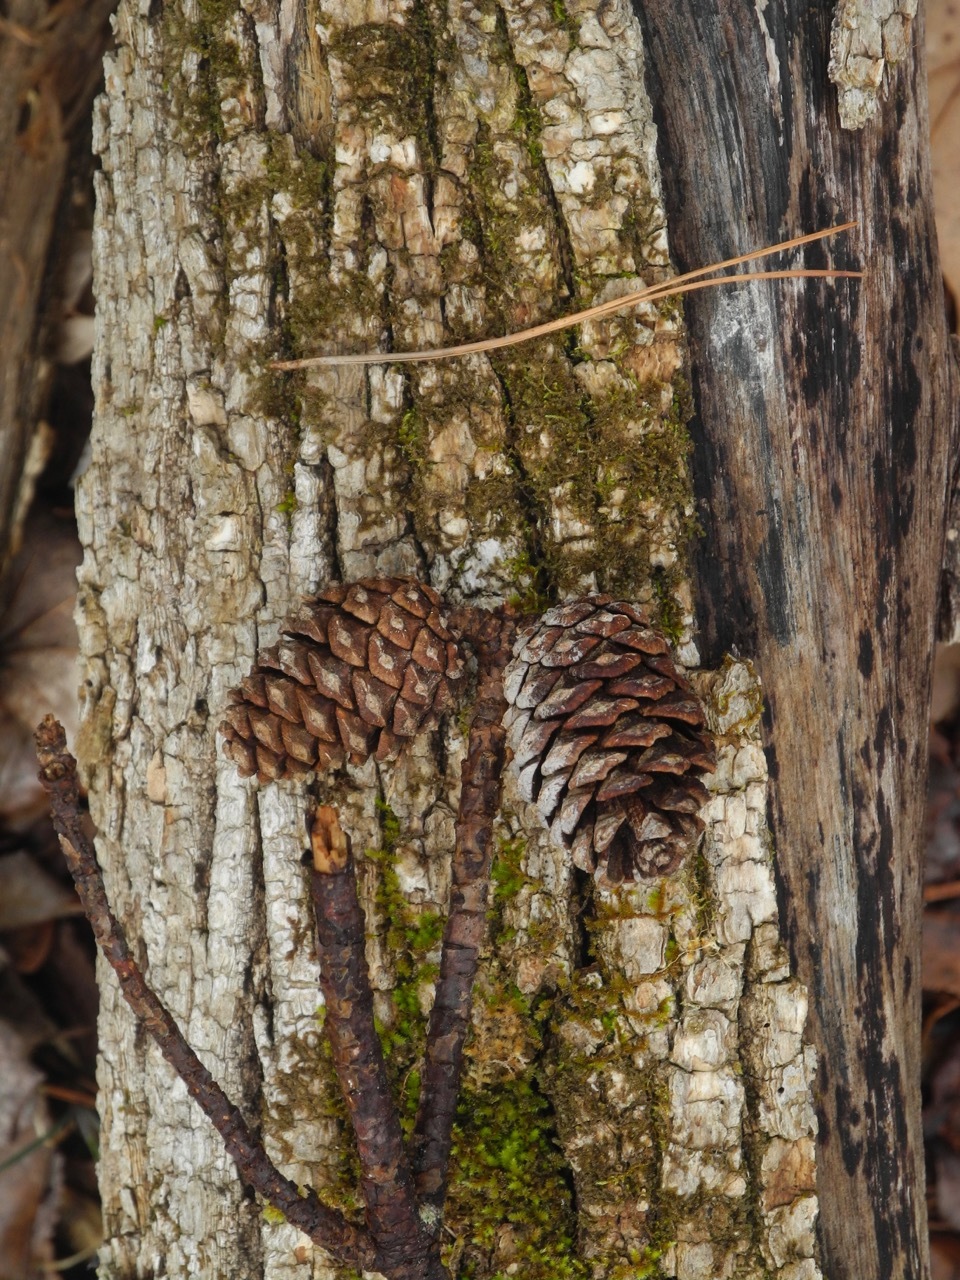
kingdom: Plantae
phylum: Tracheophyta
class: Pinopsida
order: Pinales
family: Pinaceae
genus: Pinus
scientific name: Pinus echinata
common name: Shortleaf pine
